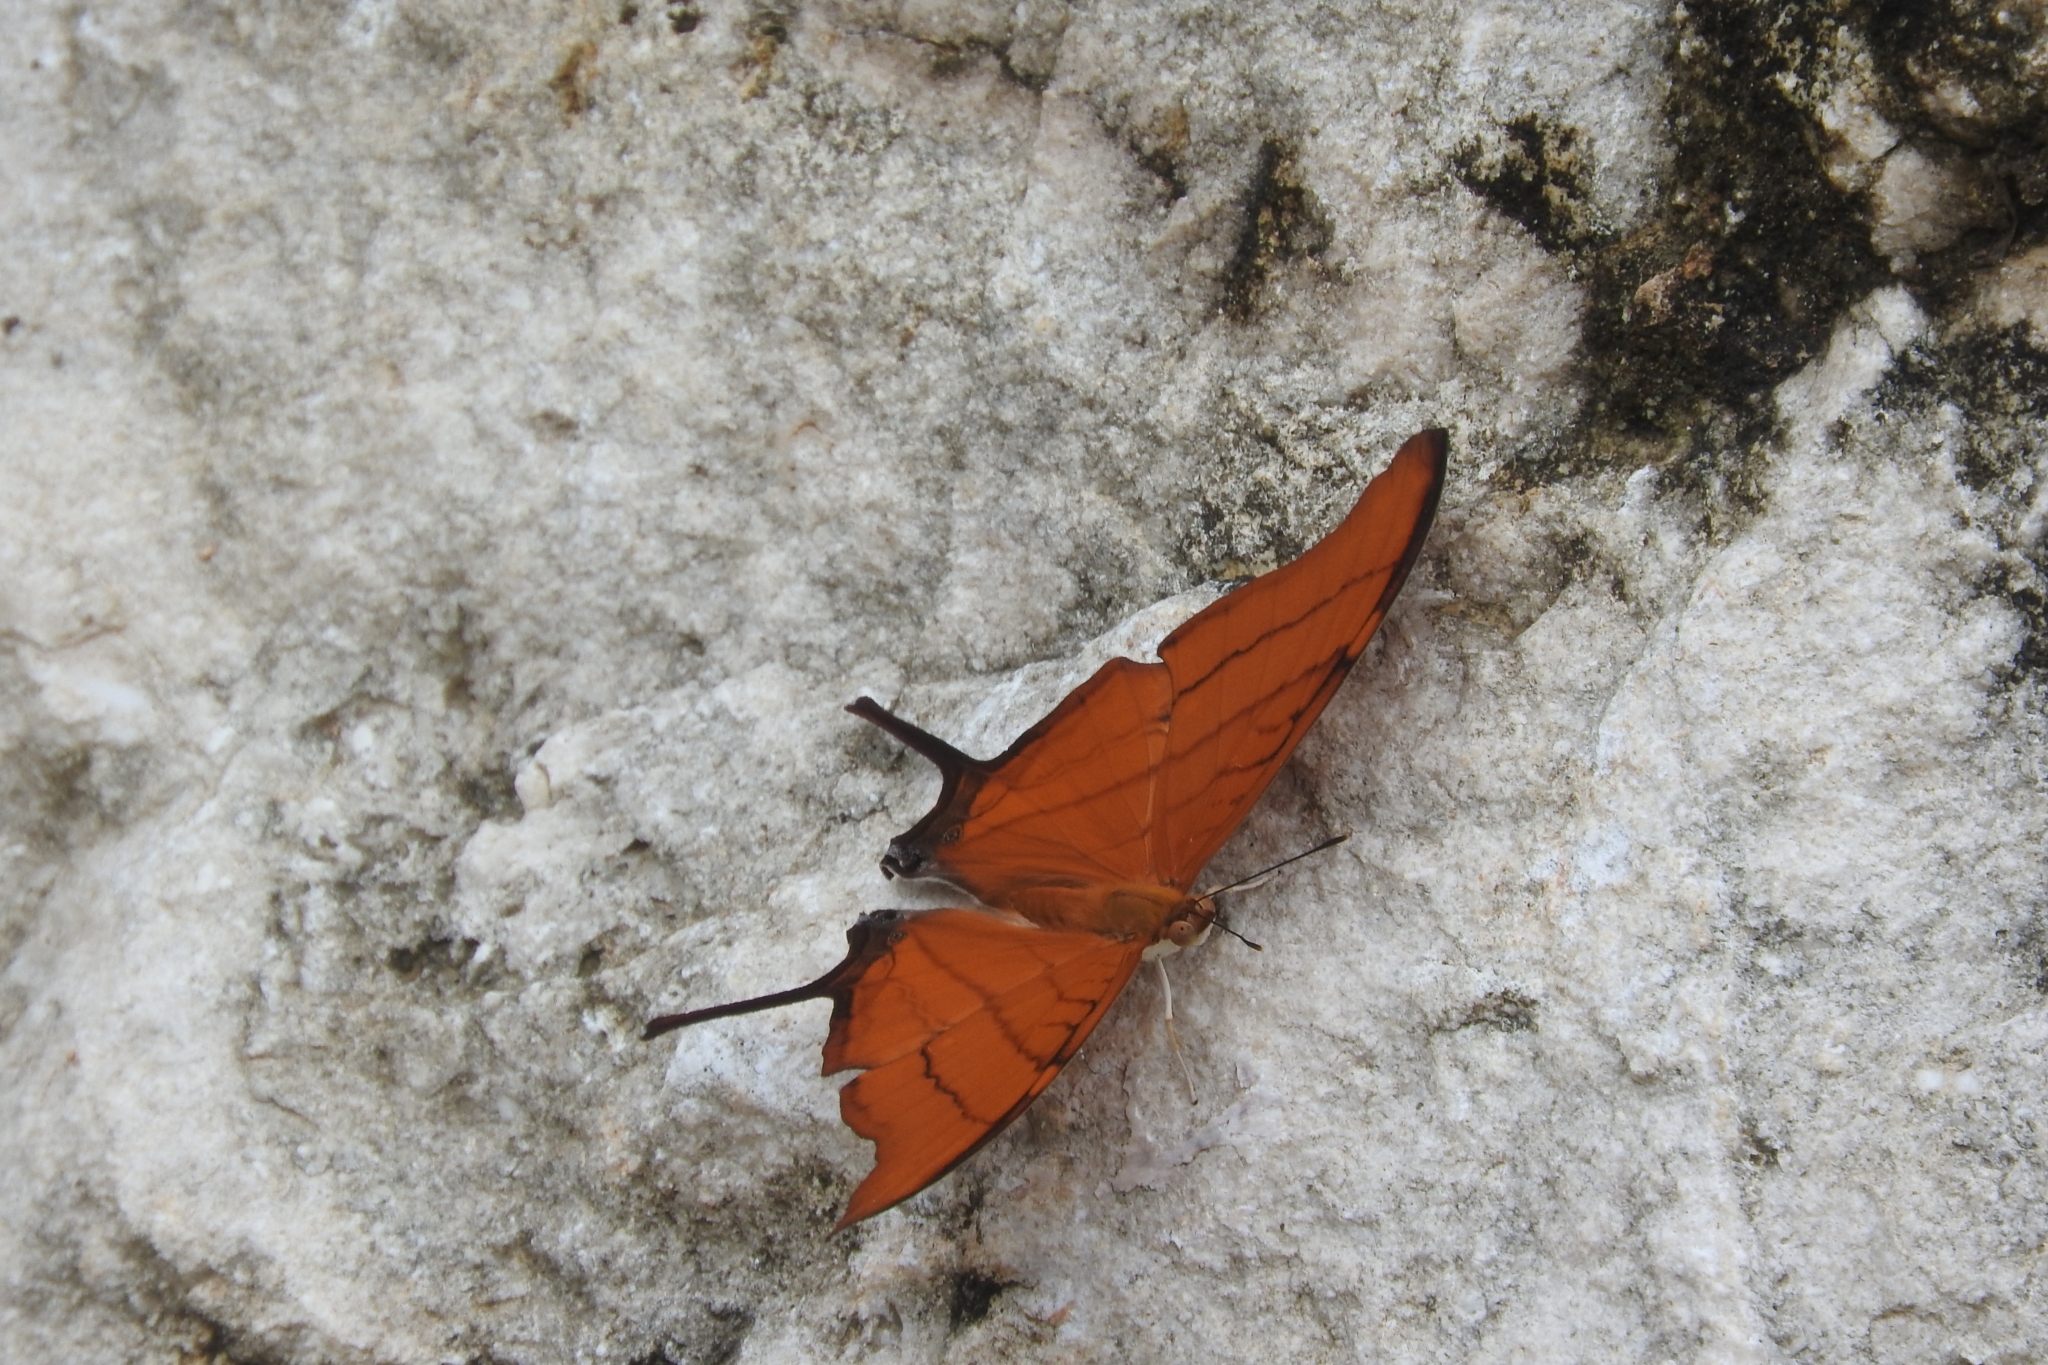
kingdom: Animalia
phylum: Arthropoda
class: Insecta
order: Lepidoptera
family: Nymphalidae
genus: Marpesia
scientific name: Marpesia petreus
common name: Red dagger wing
